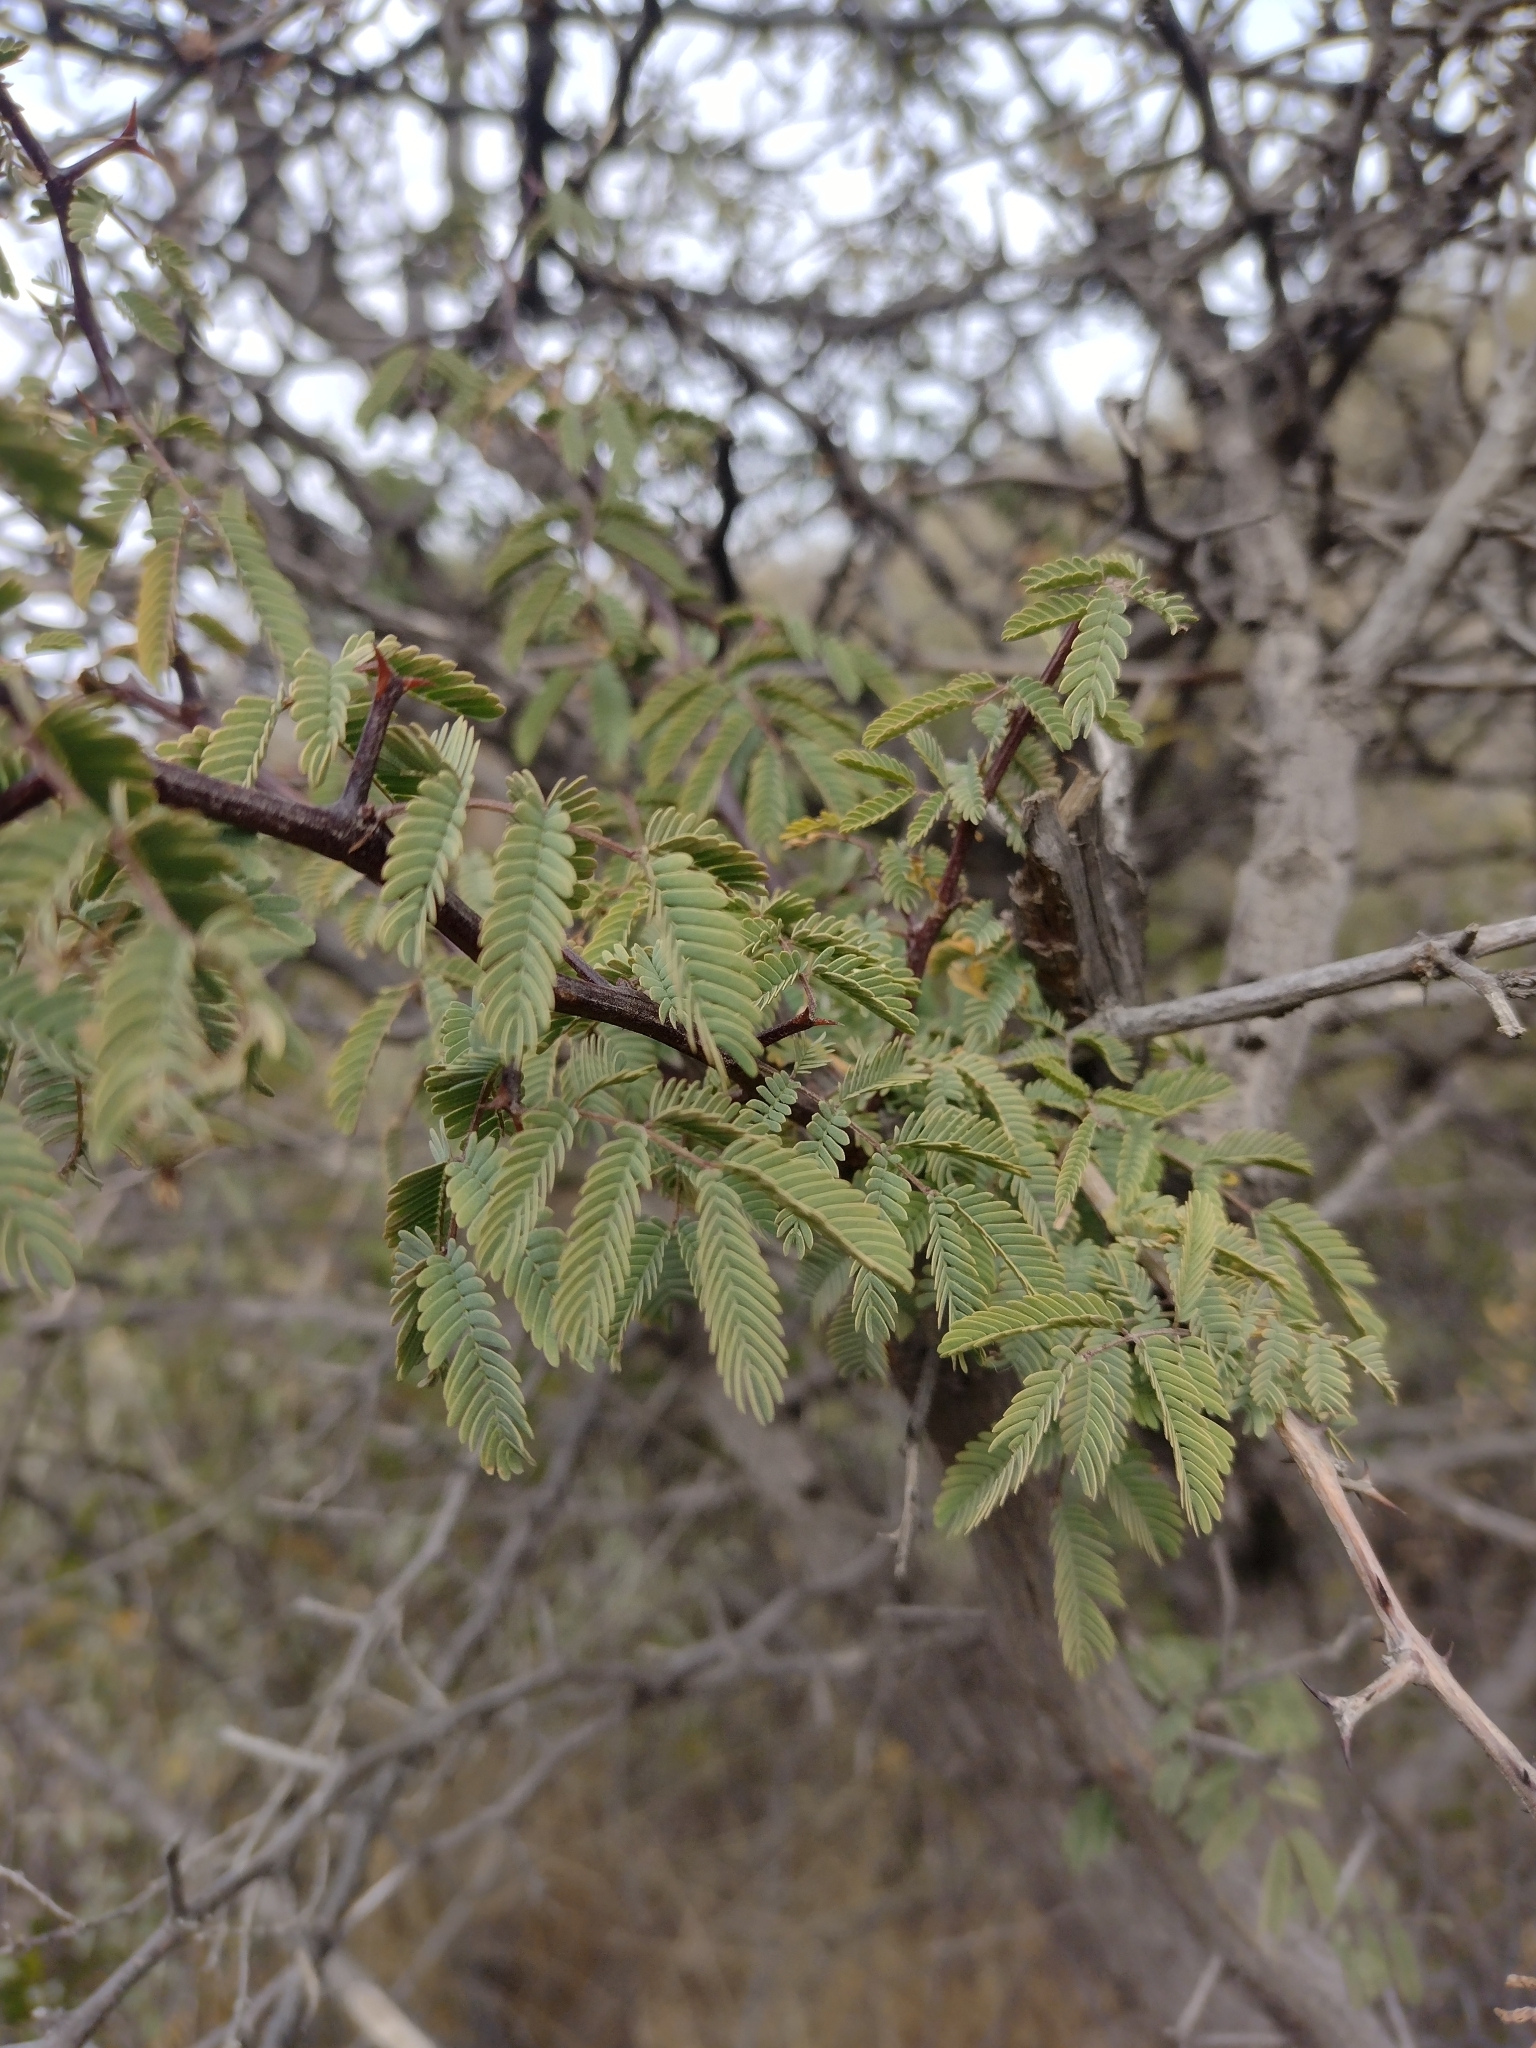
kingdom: Plantae
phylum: Tracheophyta
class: Magnoliopsida
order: Fabales
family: Fabaceae
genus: Senegalia
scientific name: Senegalia gilliesii
